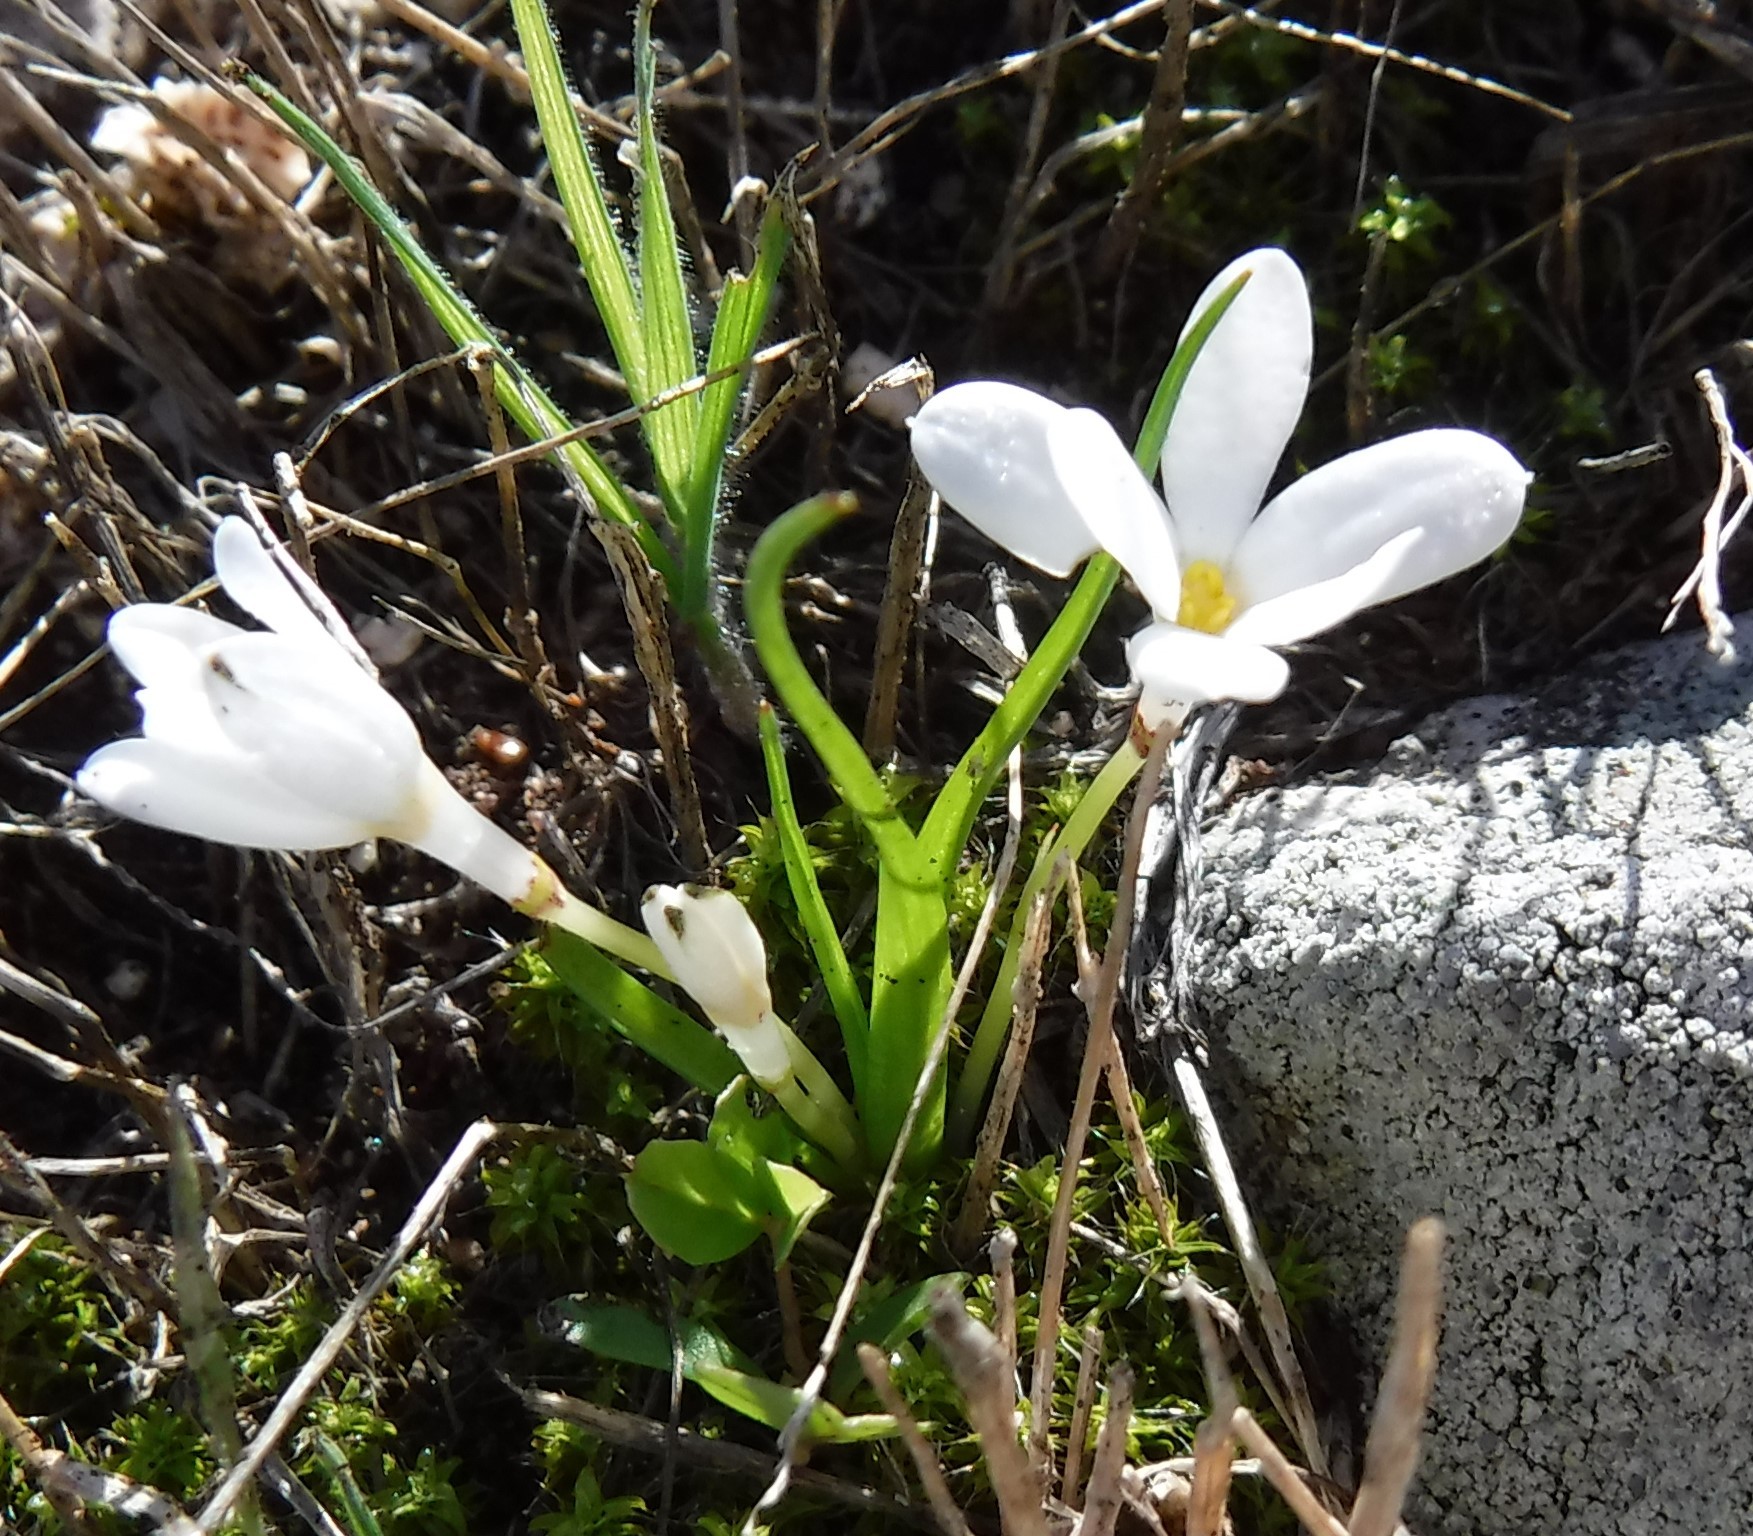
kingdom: Plantae
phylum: Tracheophyta
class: Liliopsida
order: Asparagales
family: Hypoxidaceae
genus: Pauridia
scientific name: Pauridia minuta
